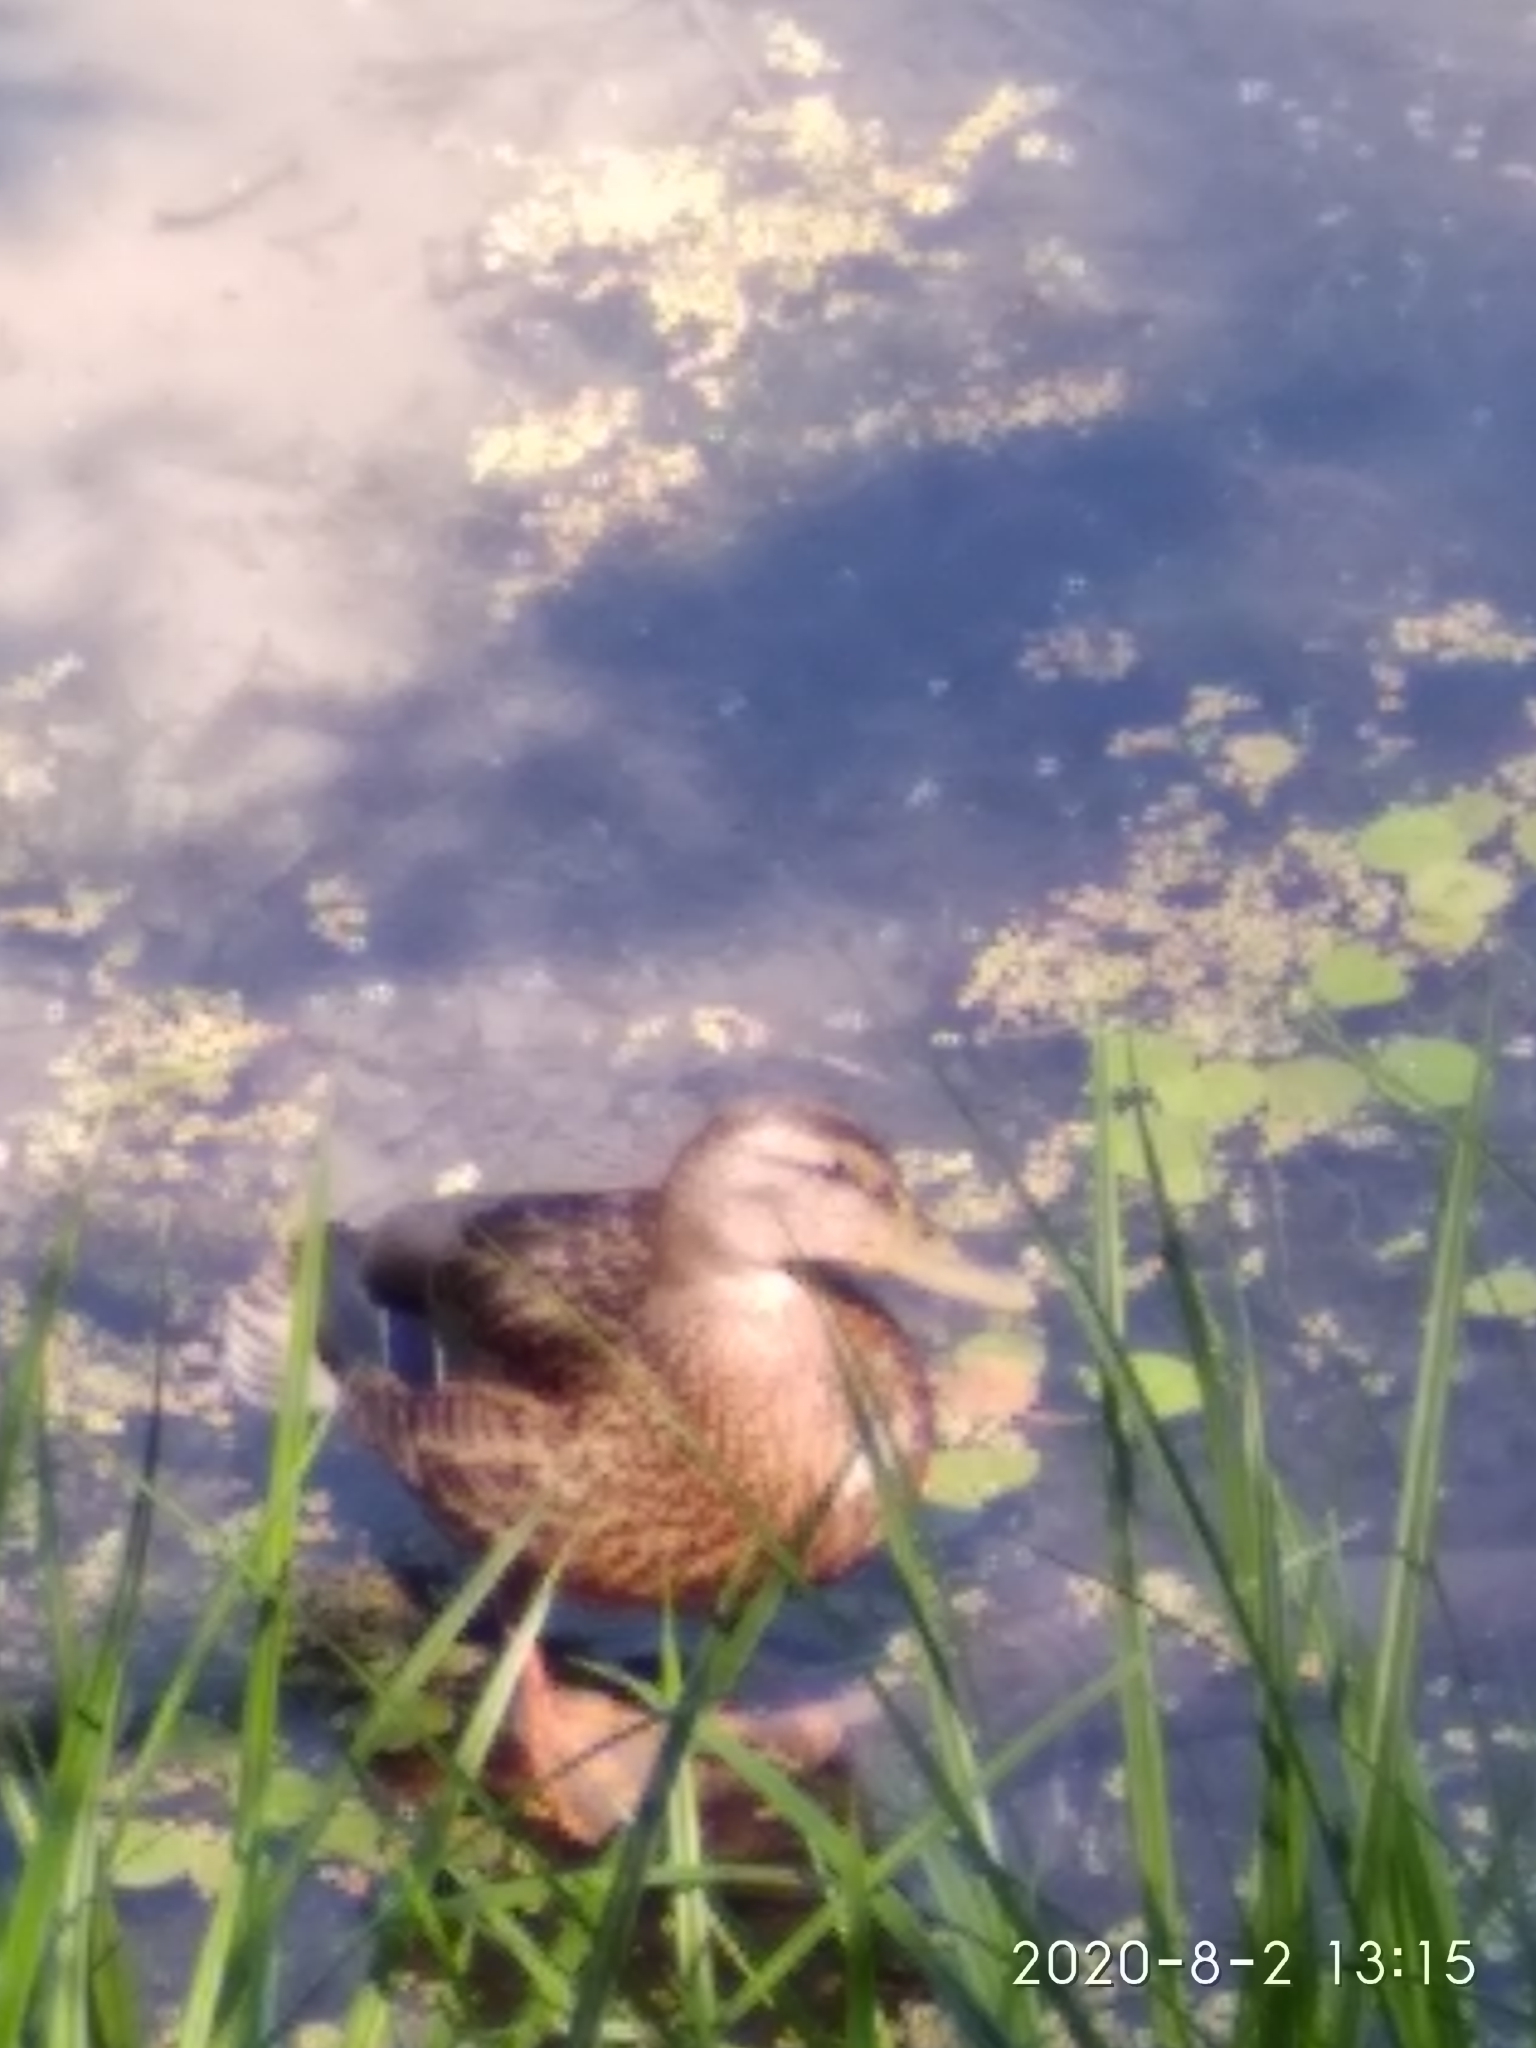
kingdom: Animalia
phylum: Chordata
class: Aves
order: Anseriformes
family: Anatidae
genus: Anas
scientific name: Anas platyrhynchos
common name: Mallard
